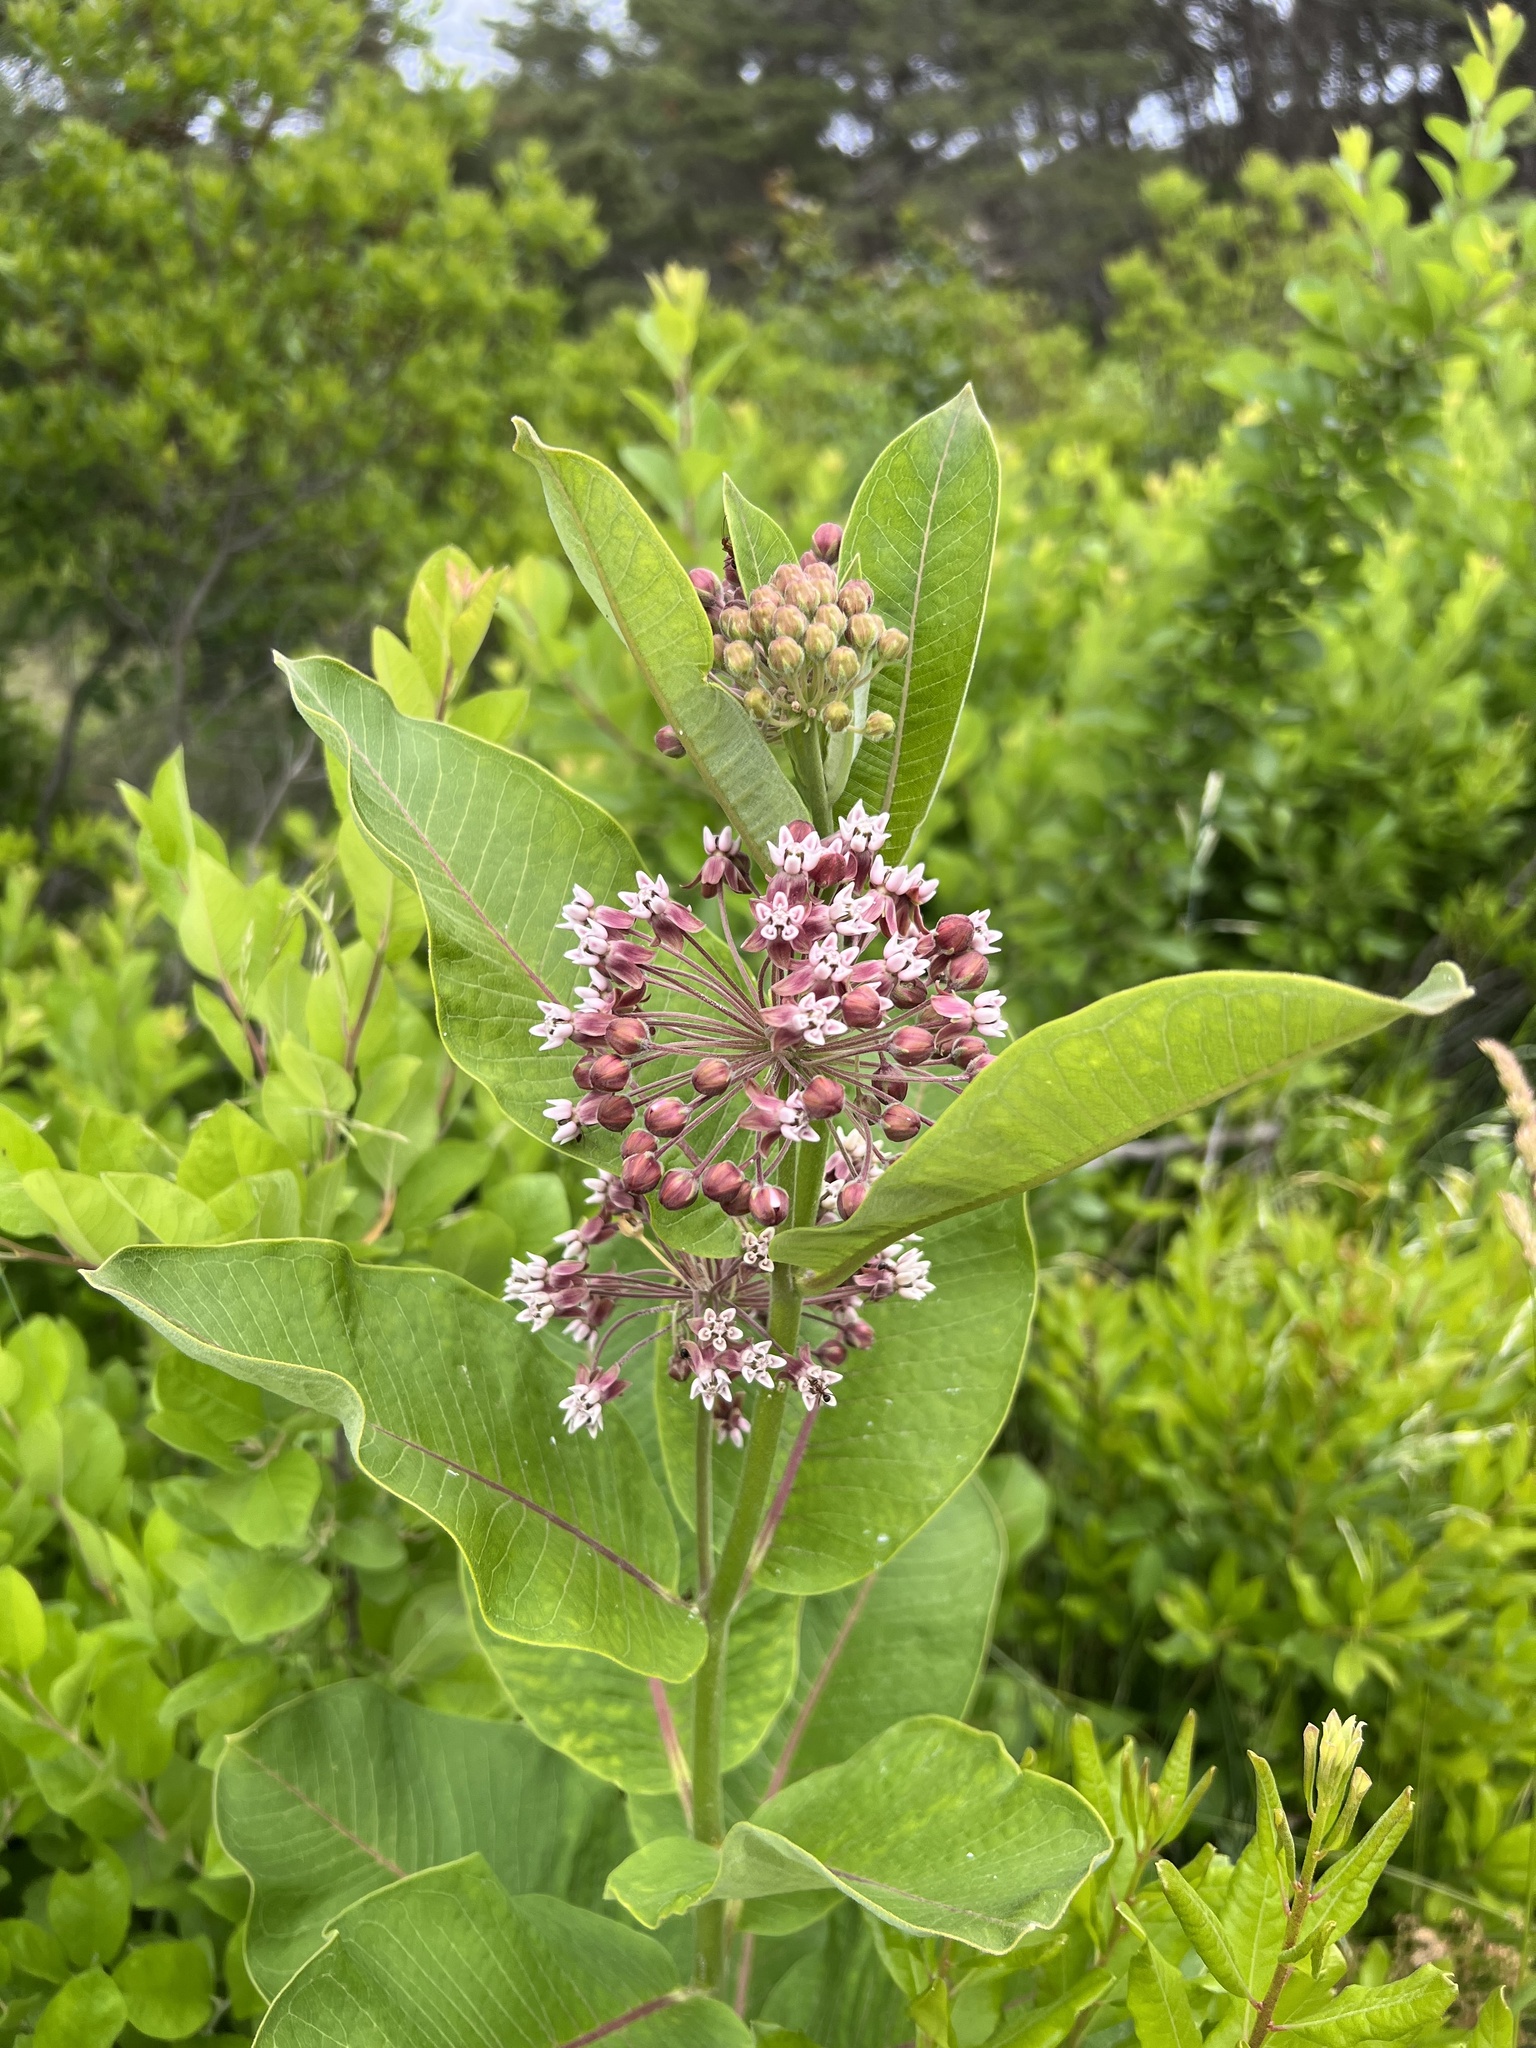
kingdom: Plantae
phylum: Tracheophyta
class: Magnoliopsida
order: Gentianales
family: Apocynaceae
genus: Asclepias
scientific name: Asclepias syriaca
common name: Common milkweed
